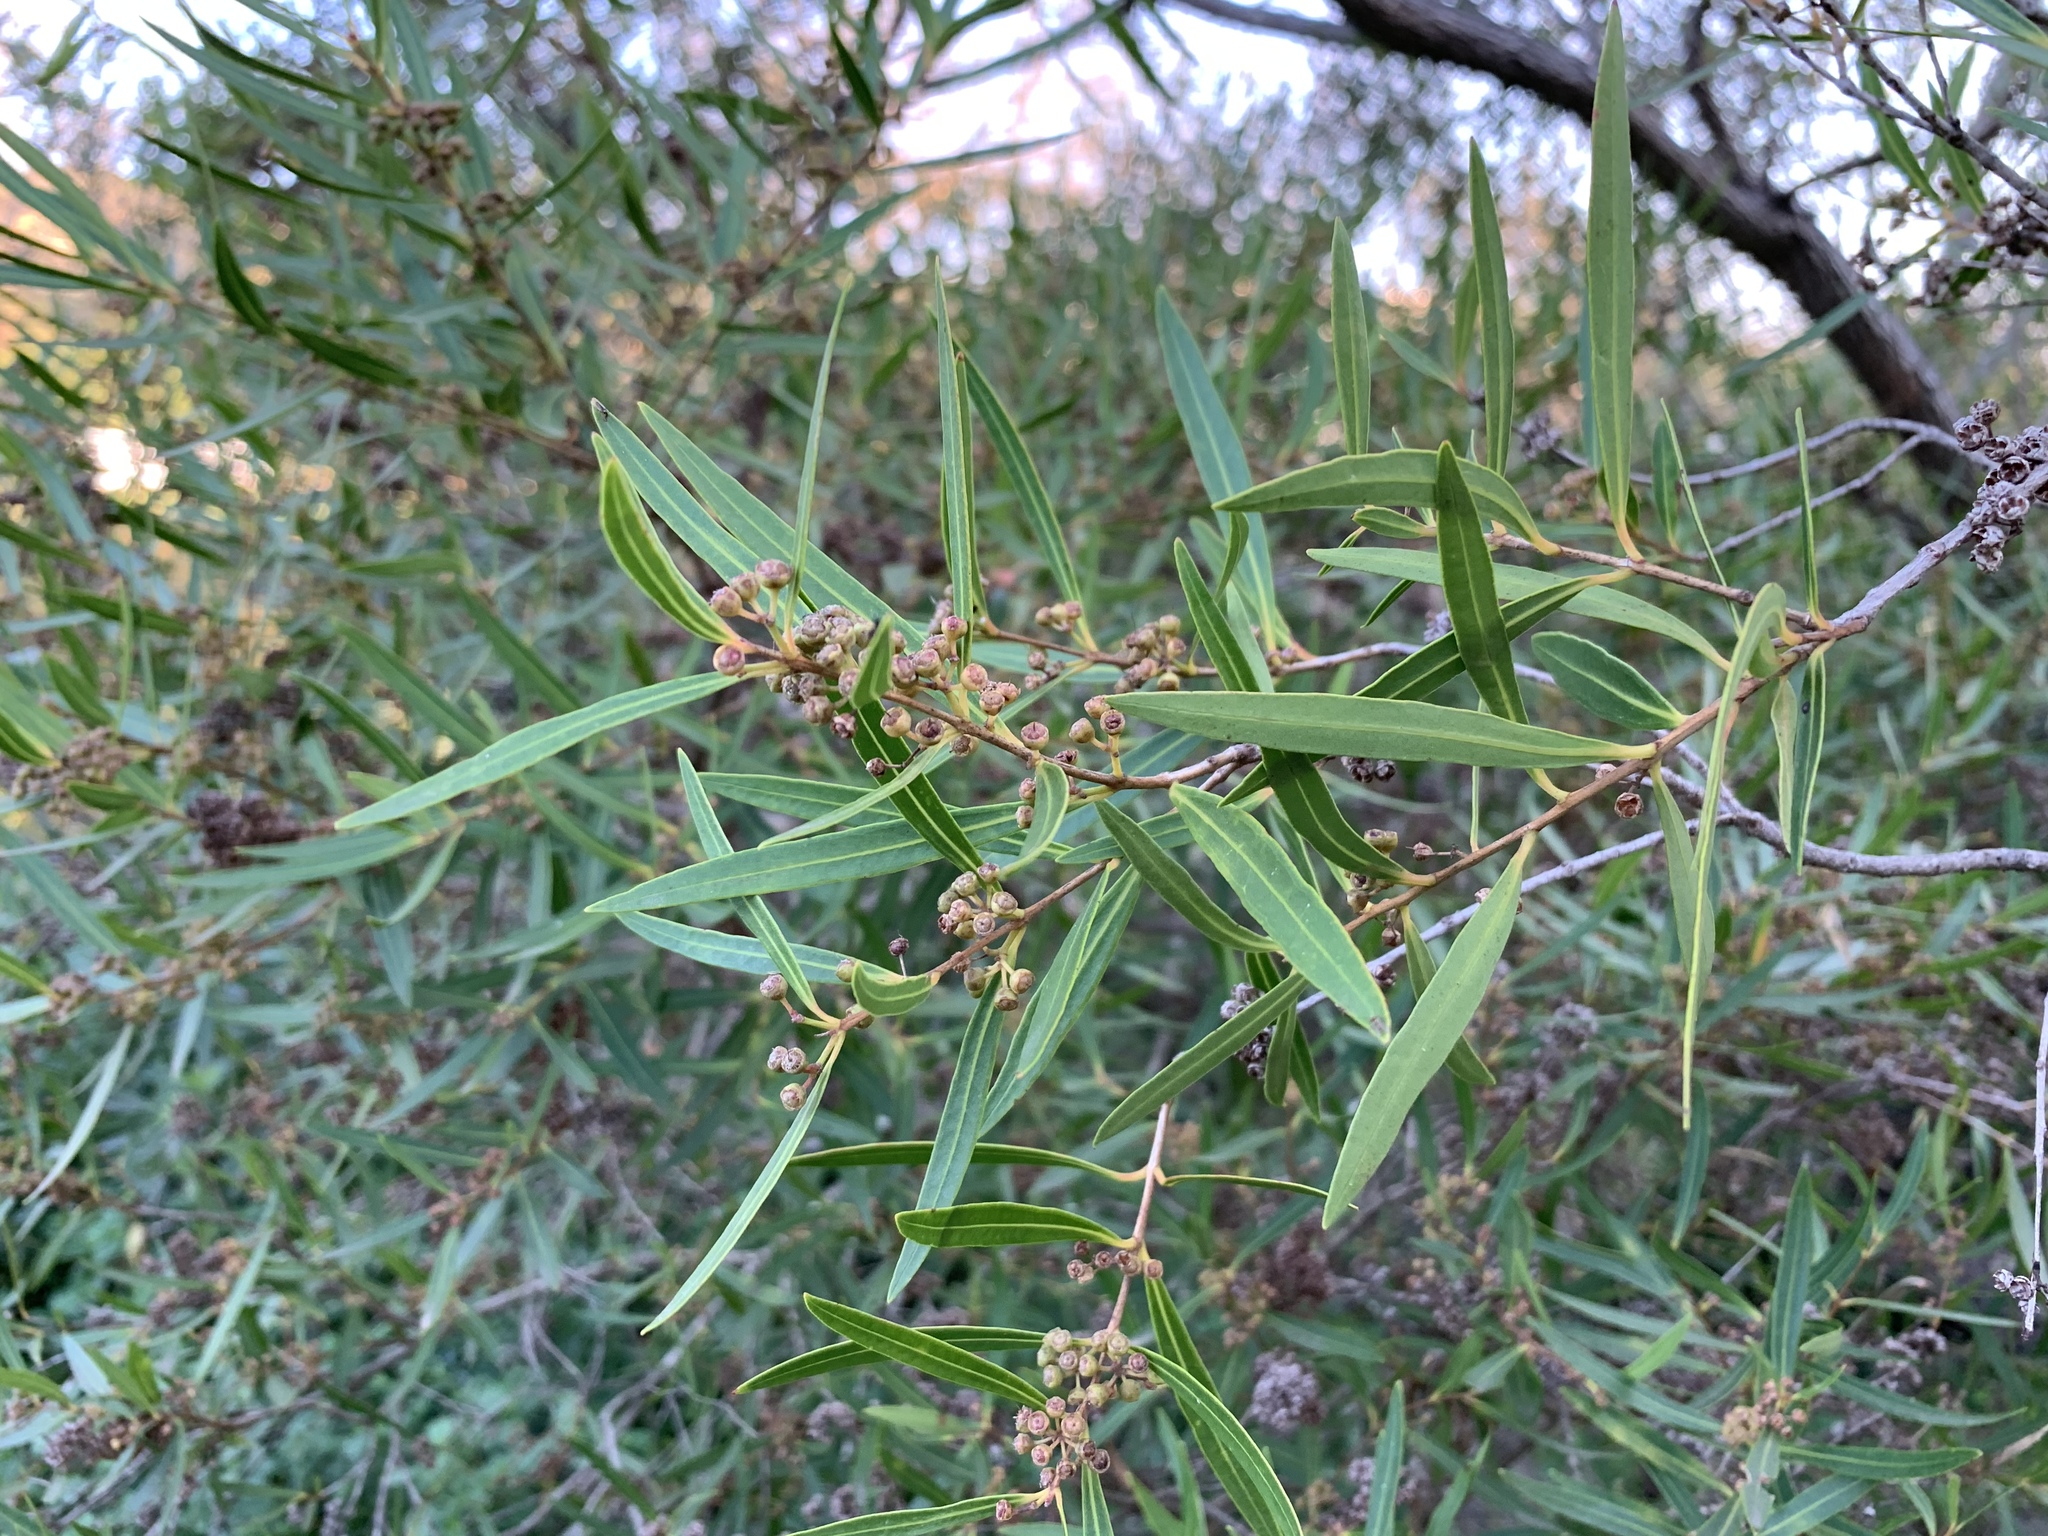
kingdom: Plantae
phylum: Tracheophyta
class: Magnoliopsida
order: Myrtales
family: Myrtaceae
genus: Callistemon
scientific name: Callistemon lanceolatus
